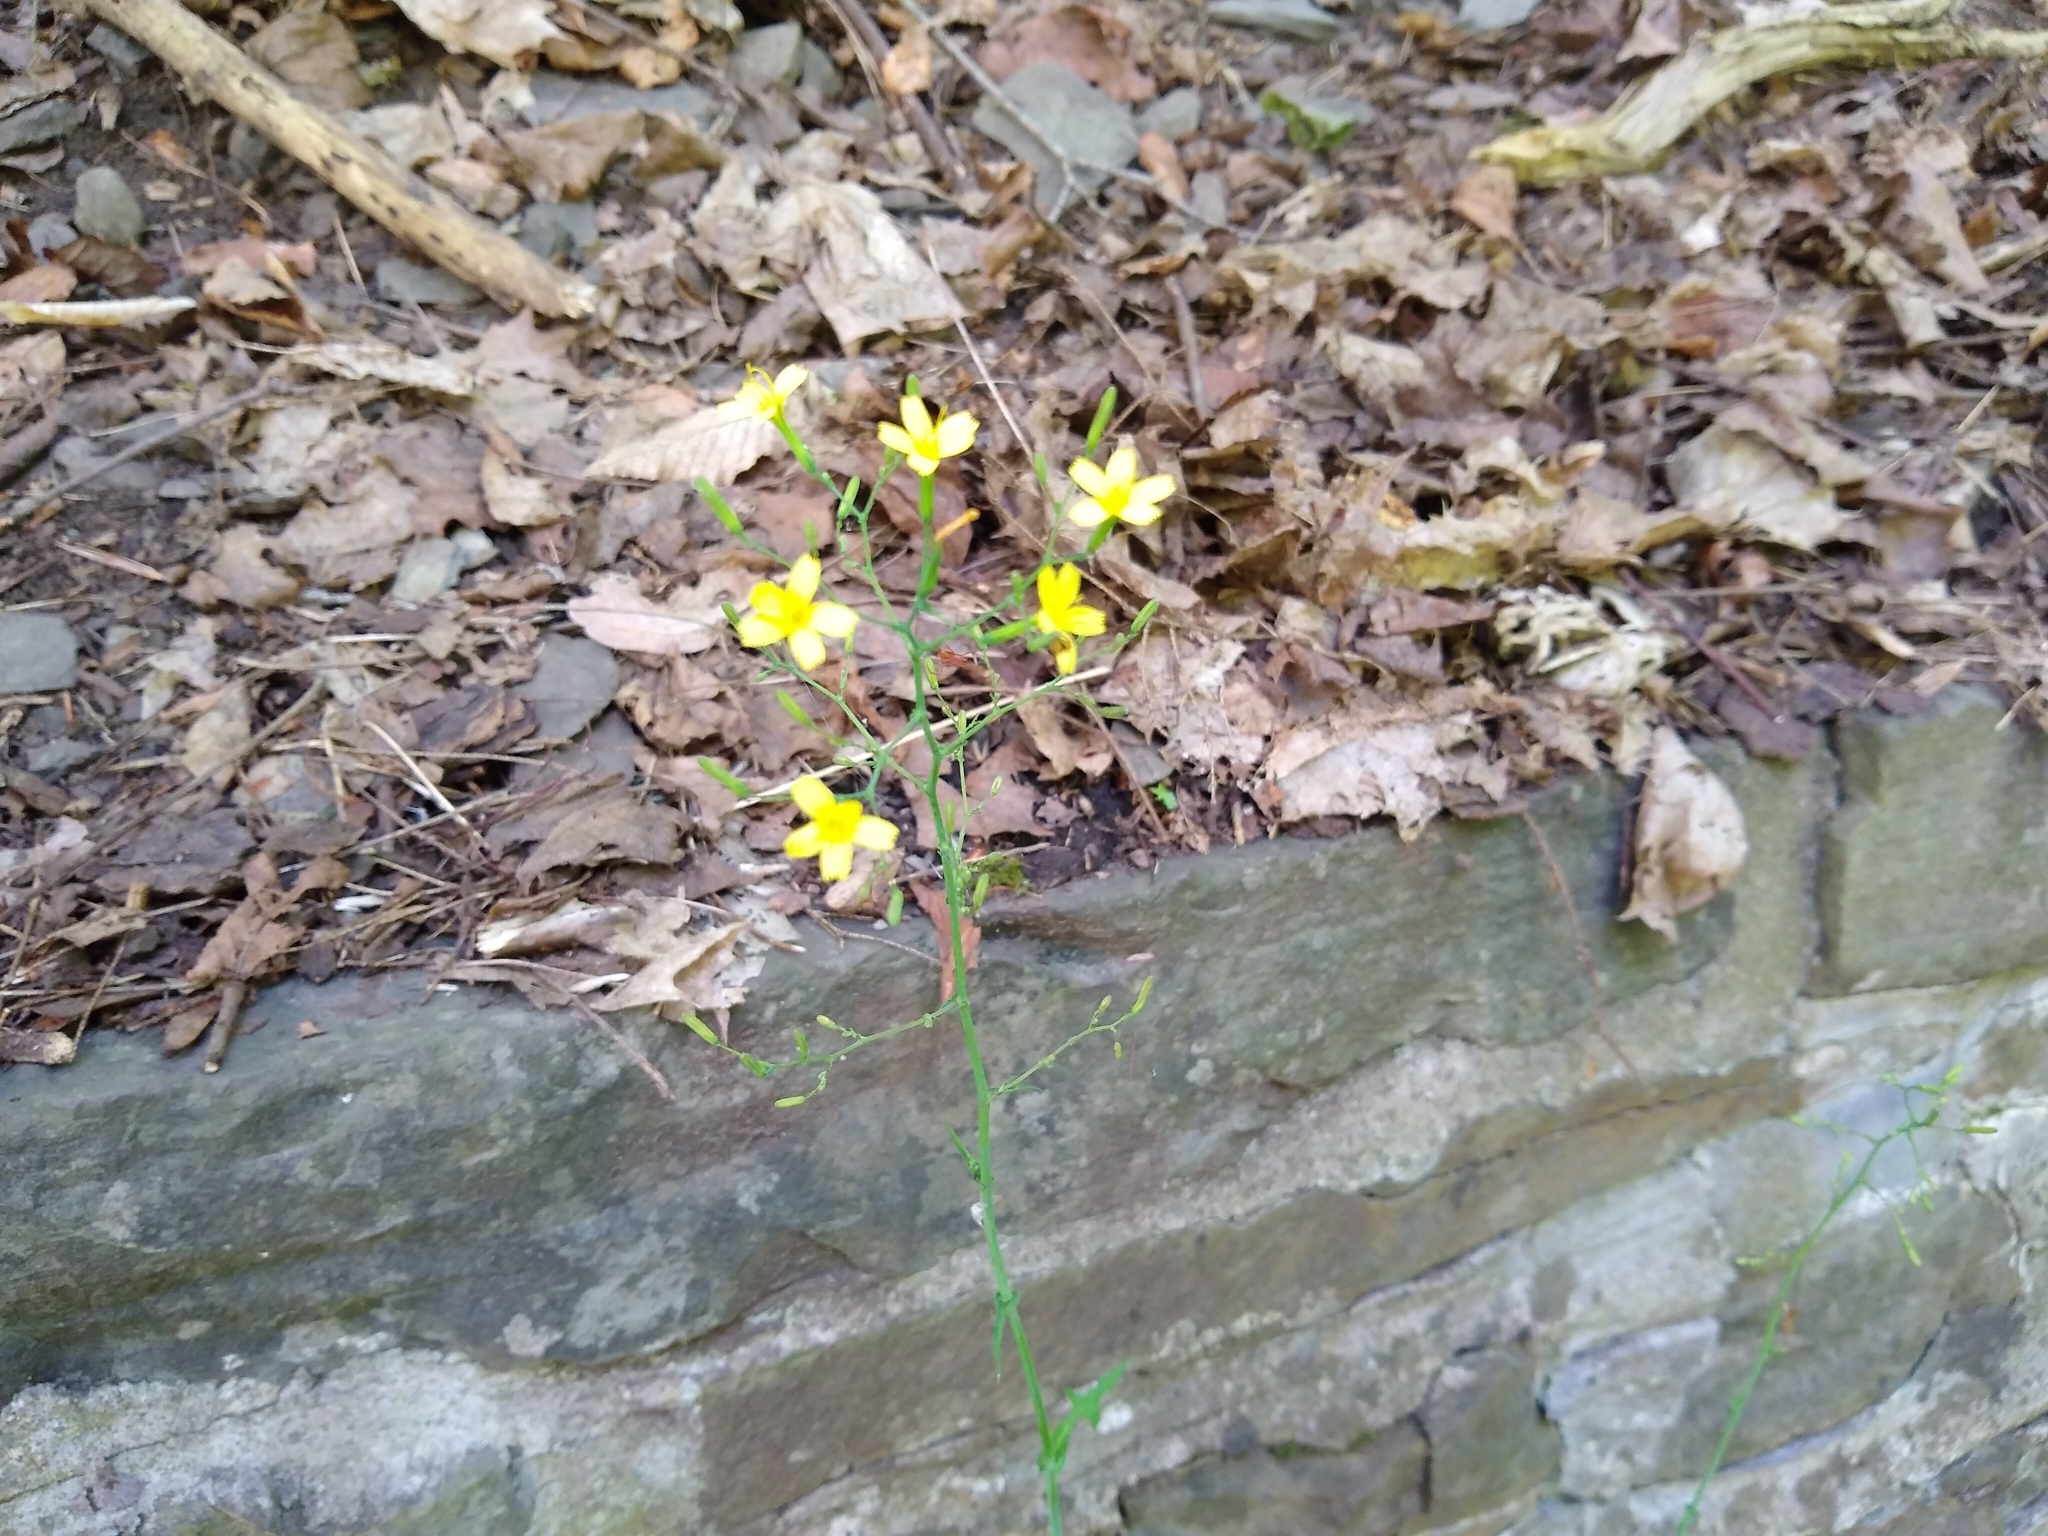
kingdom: Plantae
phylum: Tracheophyta
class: Magnoliopsida
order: Asterales
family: Asteraceae
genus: Mycelis
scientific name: Mycelis muralis
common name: Wall lettuce
